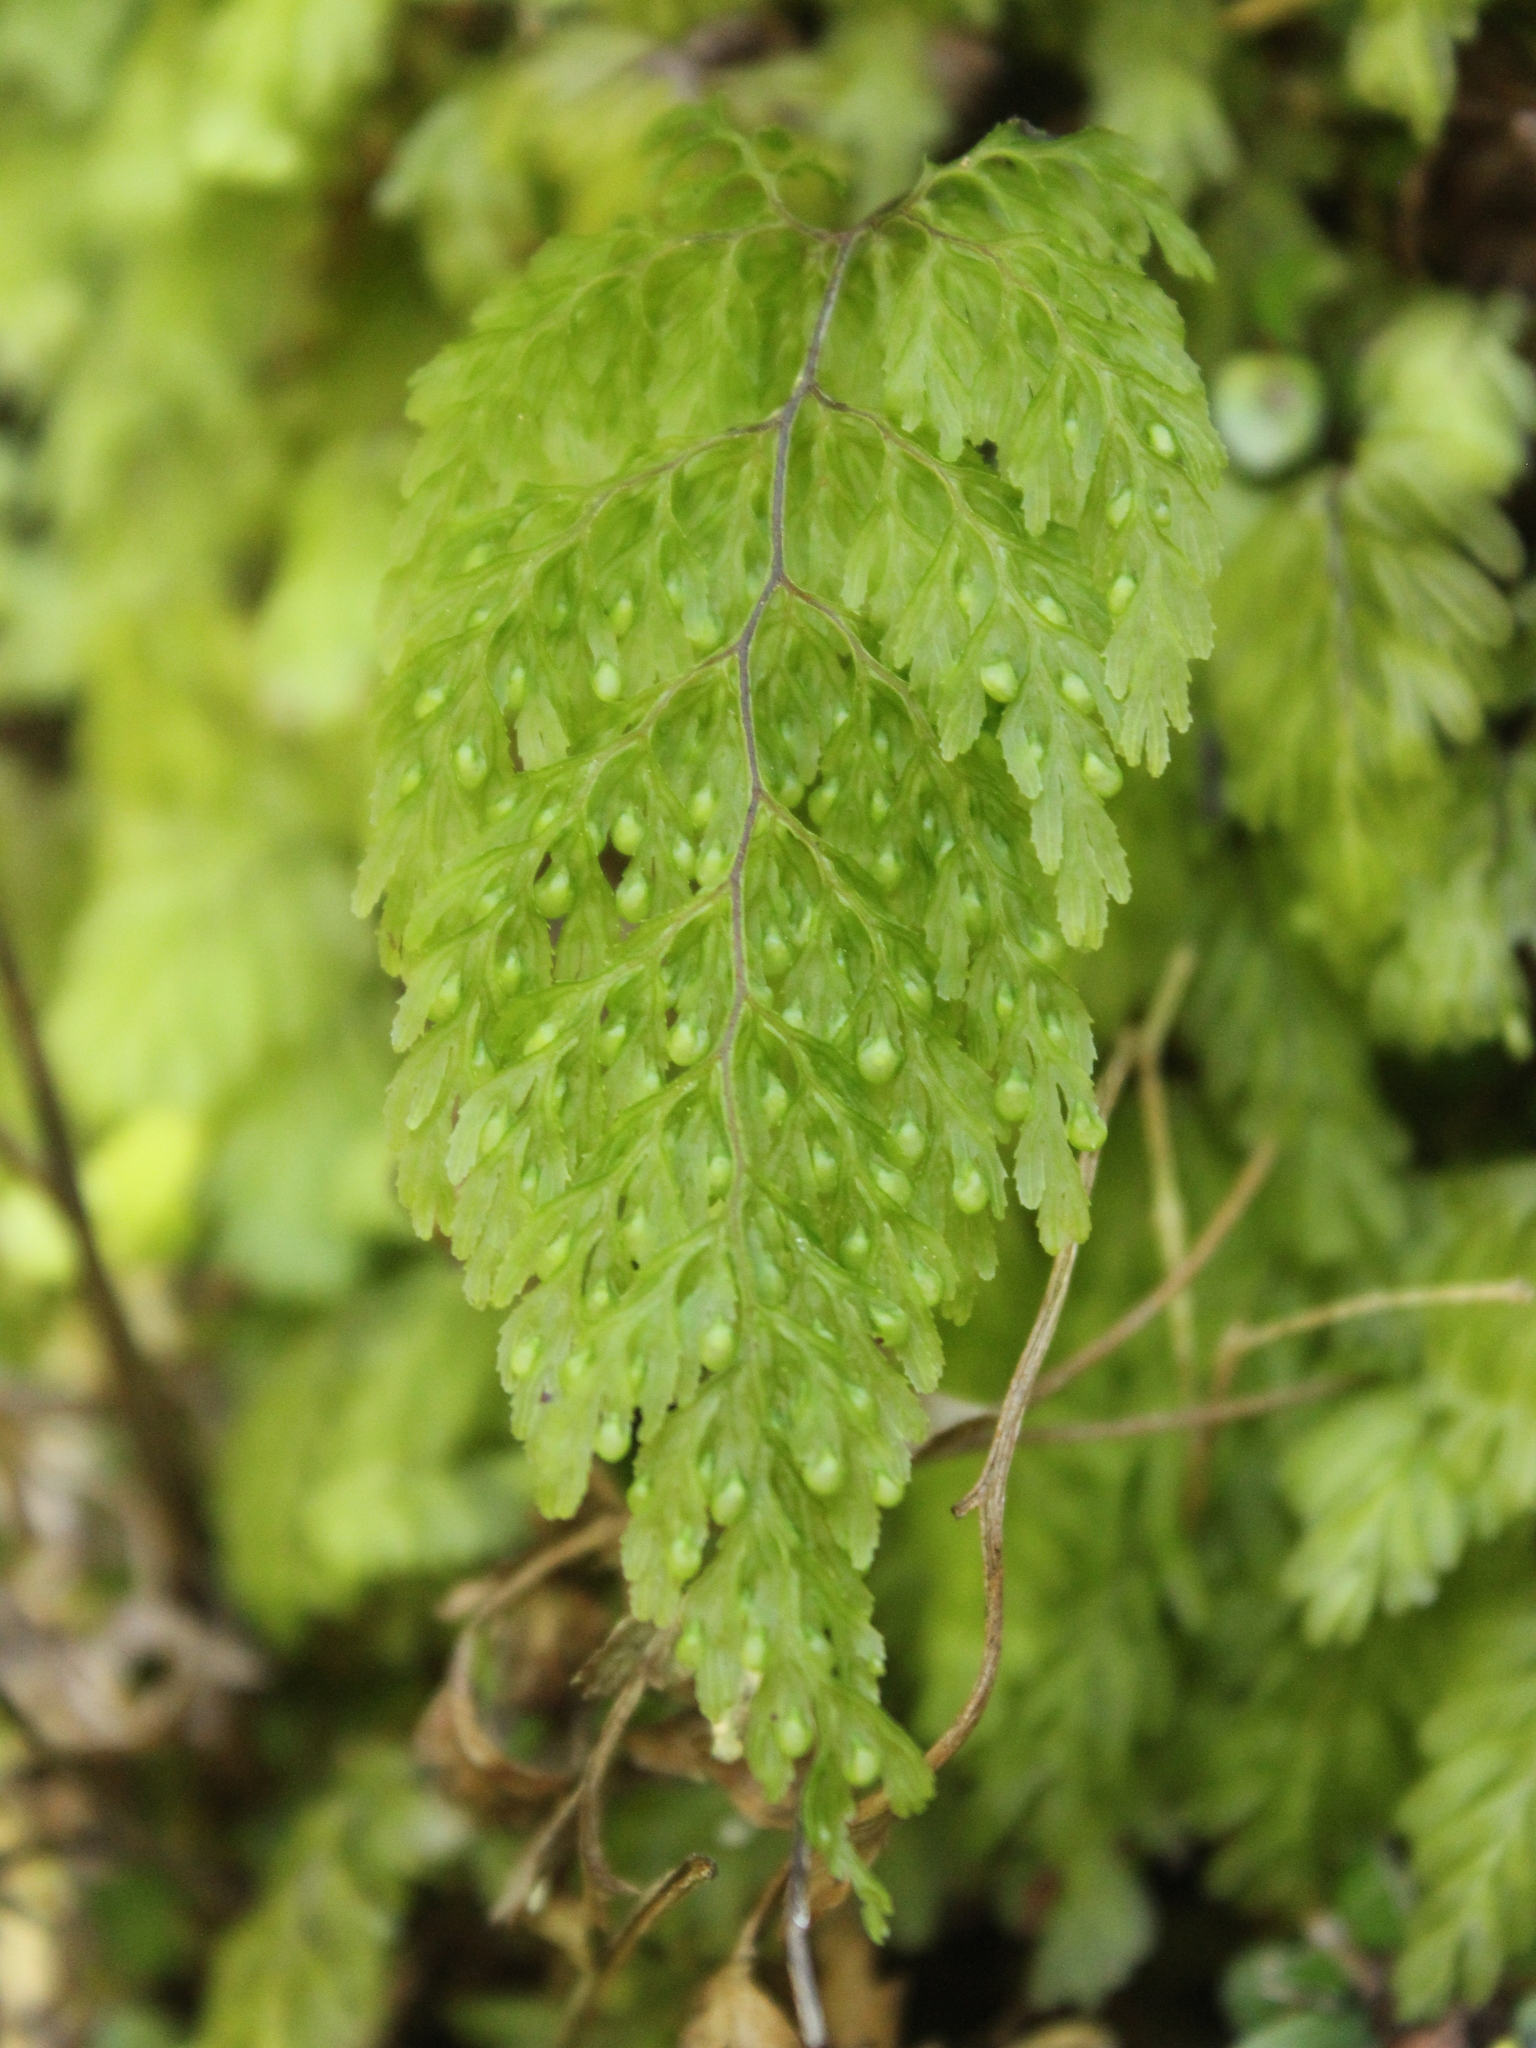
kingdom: Plantae
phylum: Tracheophyta
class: Polypodiopsida
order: Hymenophyllales
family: Hymenophyllaceae
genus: Hymenophyllum
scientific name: Hymenophyllum bivalve
